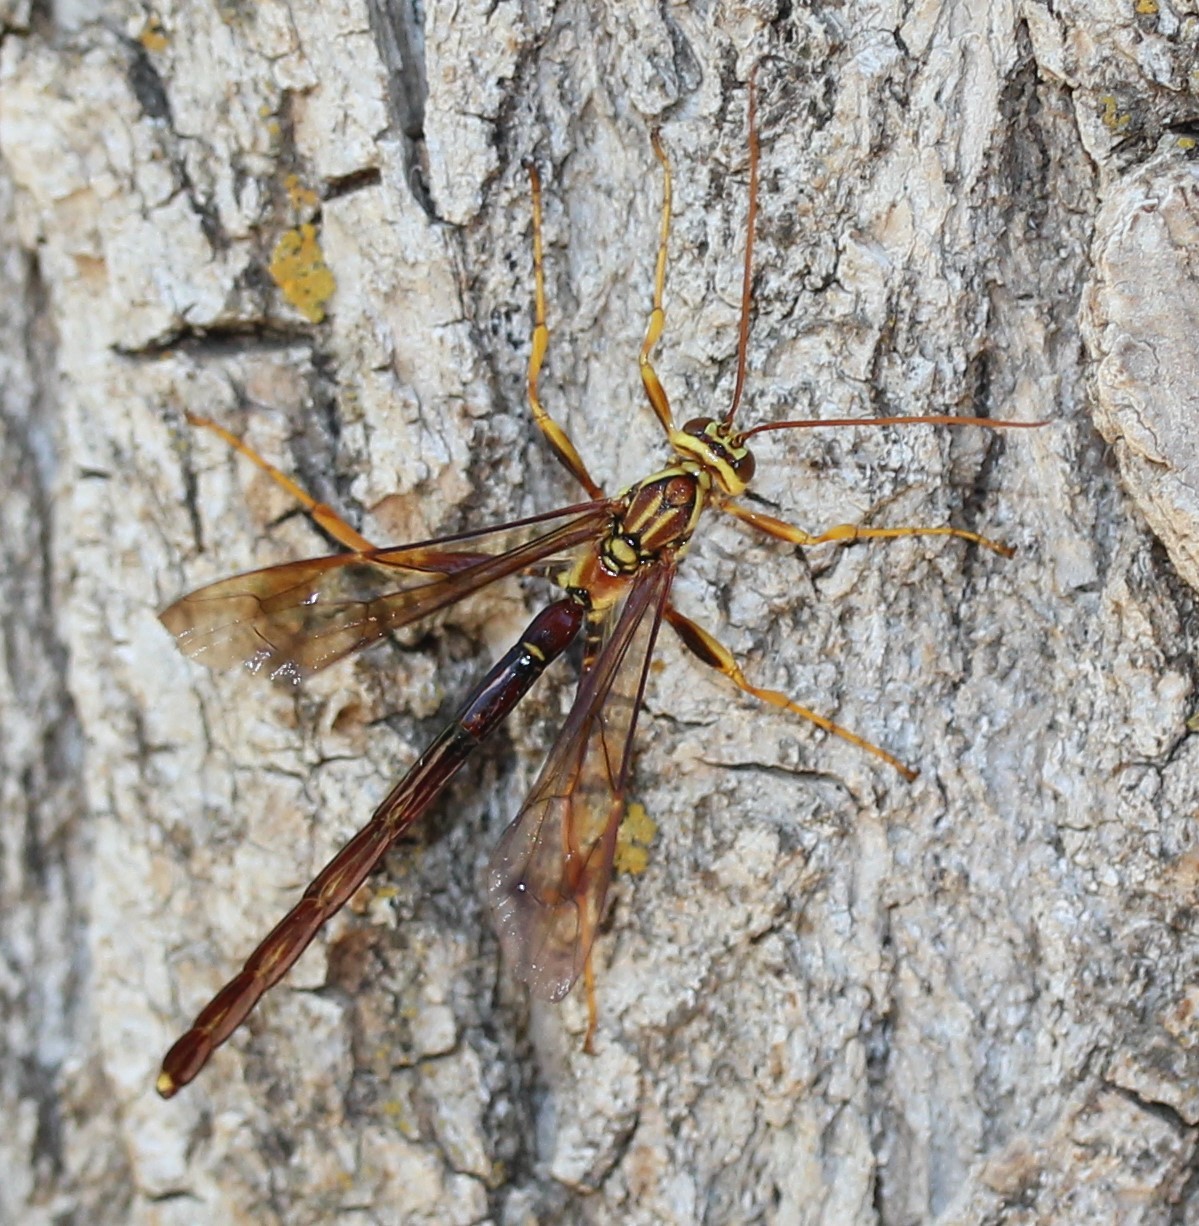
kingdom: Animalia
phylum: Arthropoda
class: Insecta
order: Hymenoptera
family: Ichneumonidae
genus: Megarhyssa
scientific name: Megarhyssa macrura
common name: Long-tailed giant ichneumonid wasp
